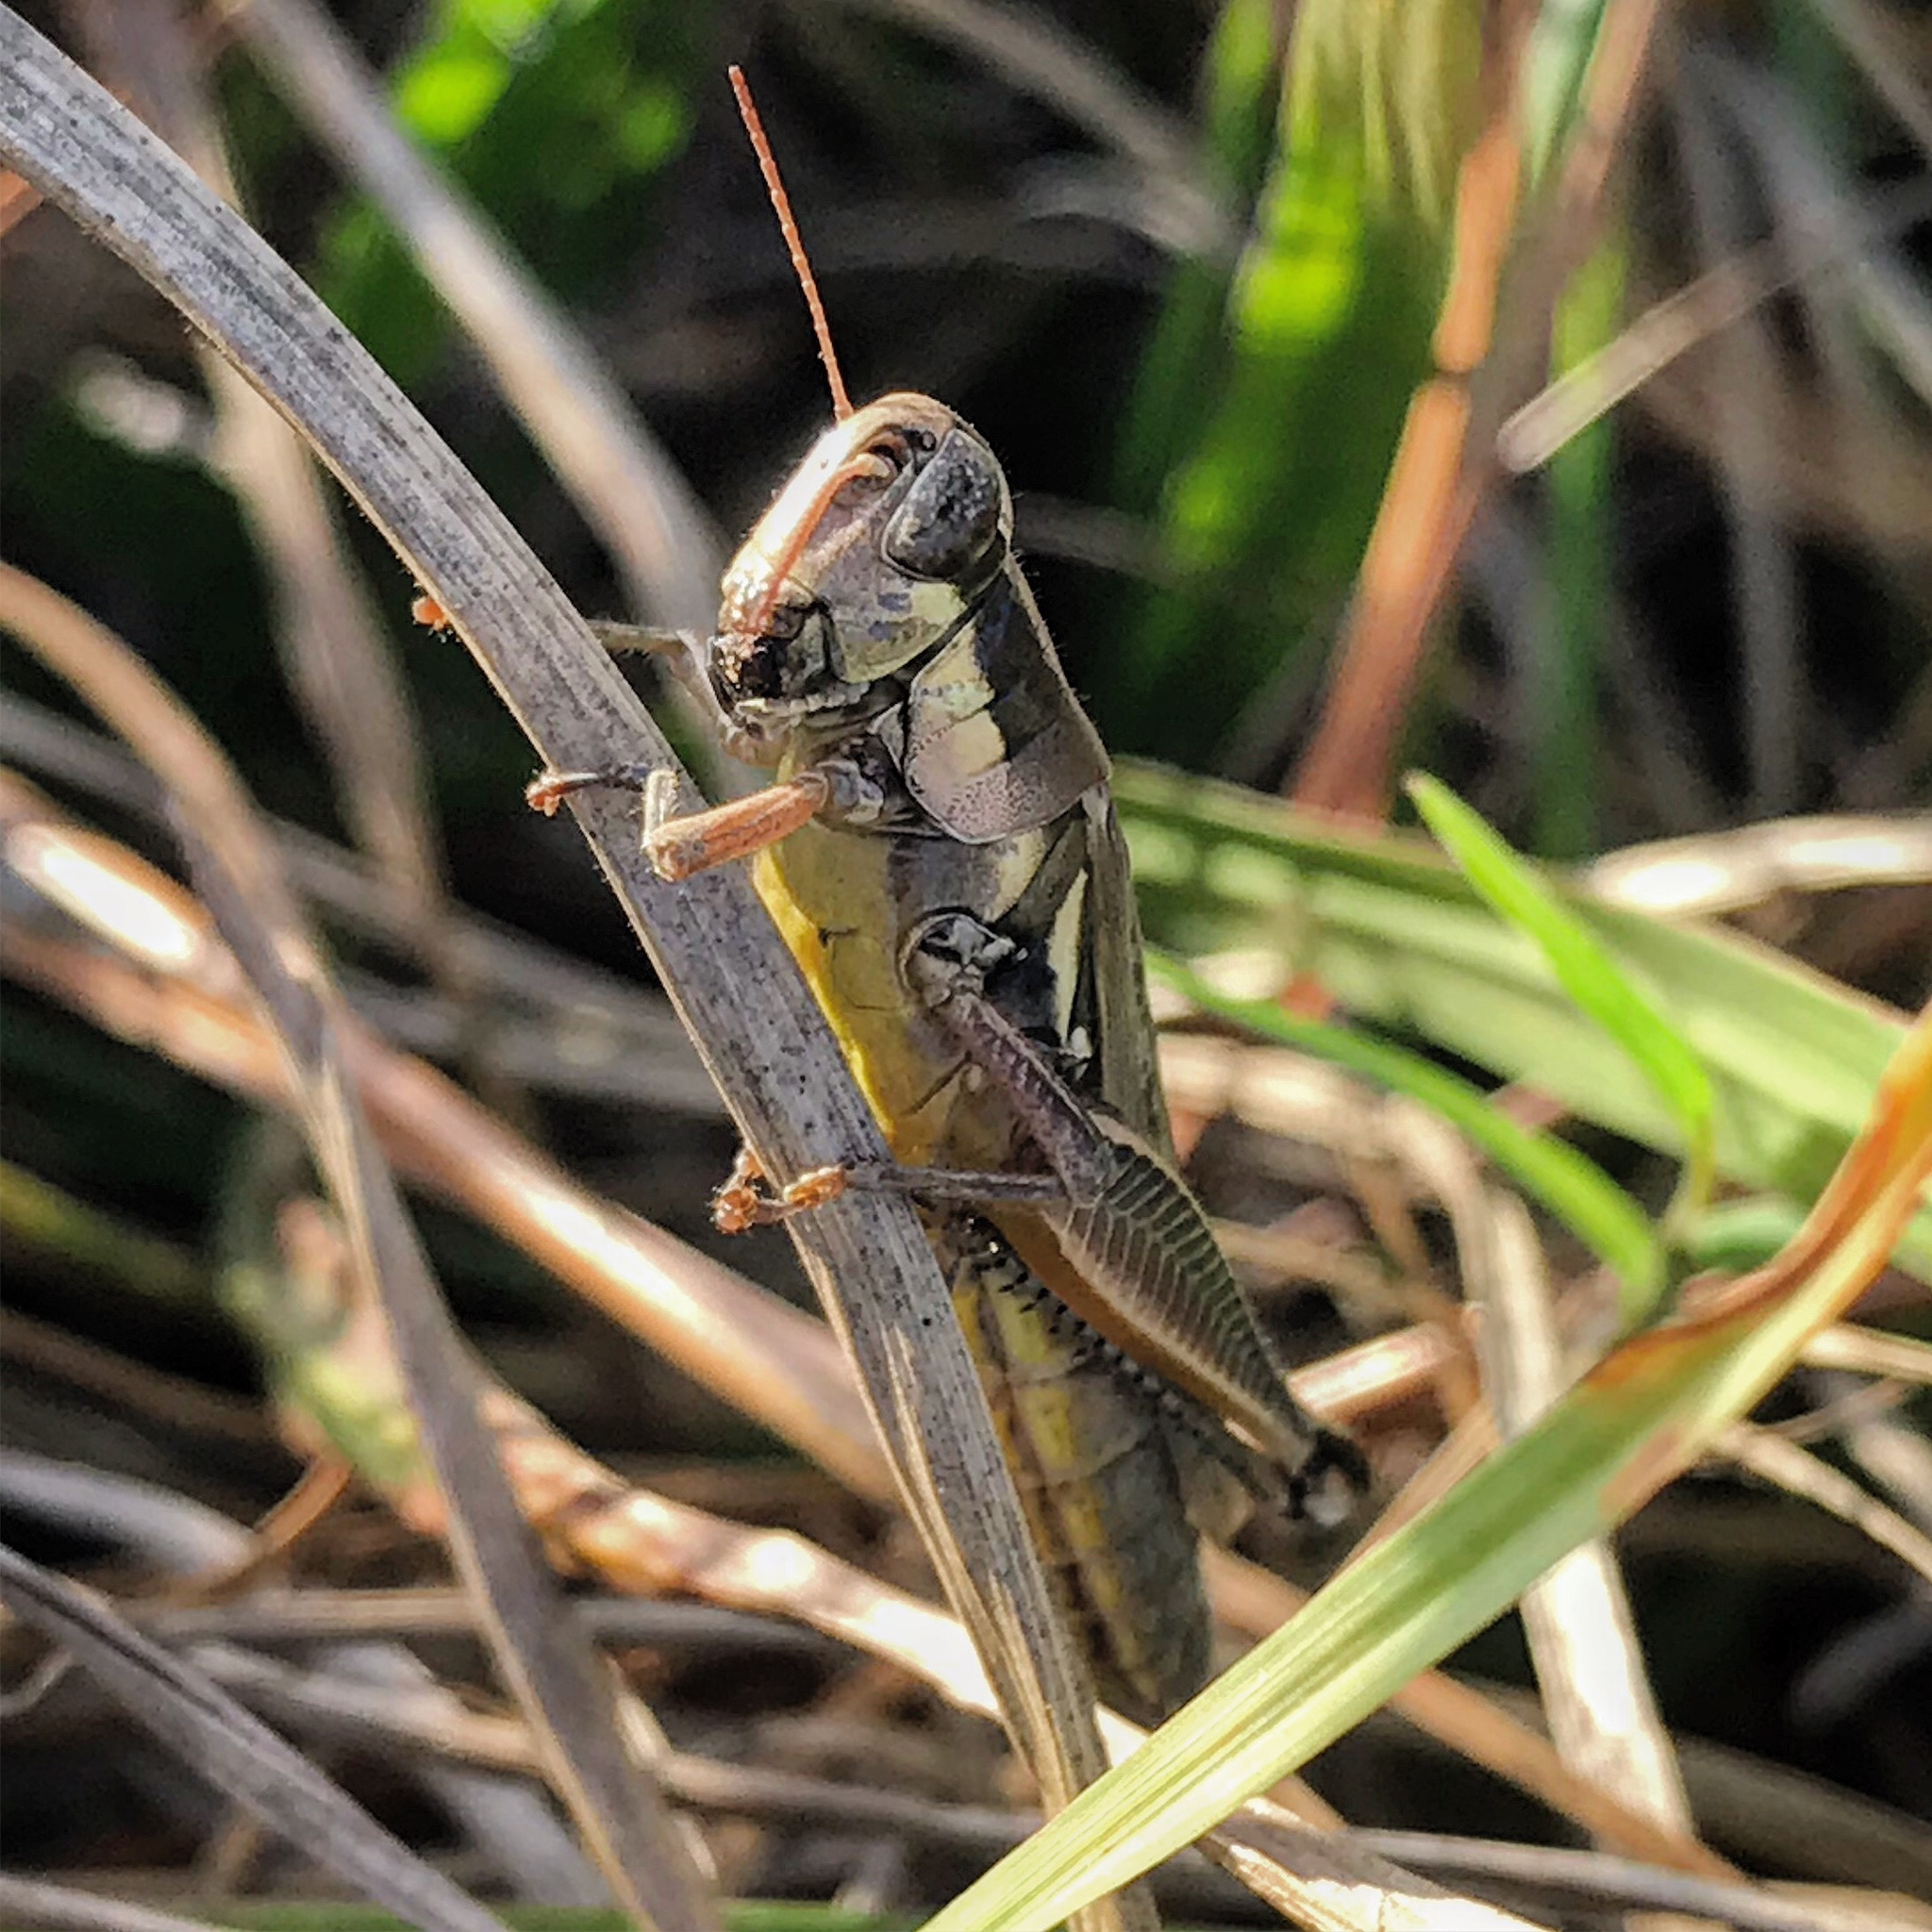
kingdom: Animalia
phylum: Arthropoda
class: Insecta
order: Orthoptera
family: Acrididae
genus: Paroxya
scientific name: Paroxya atlantica
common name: Atlantic grasshopper
